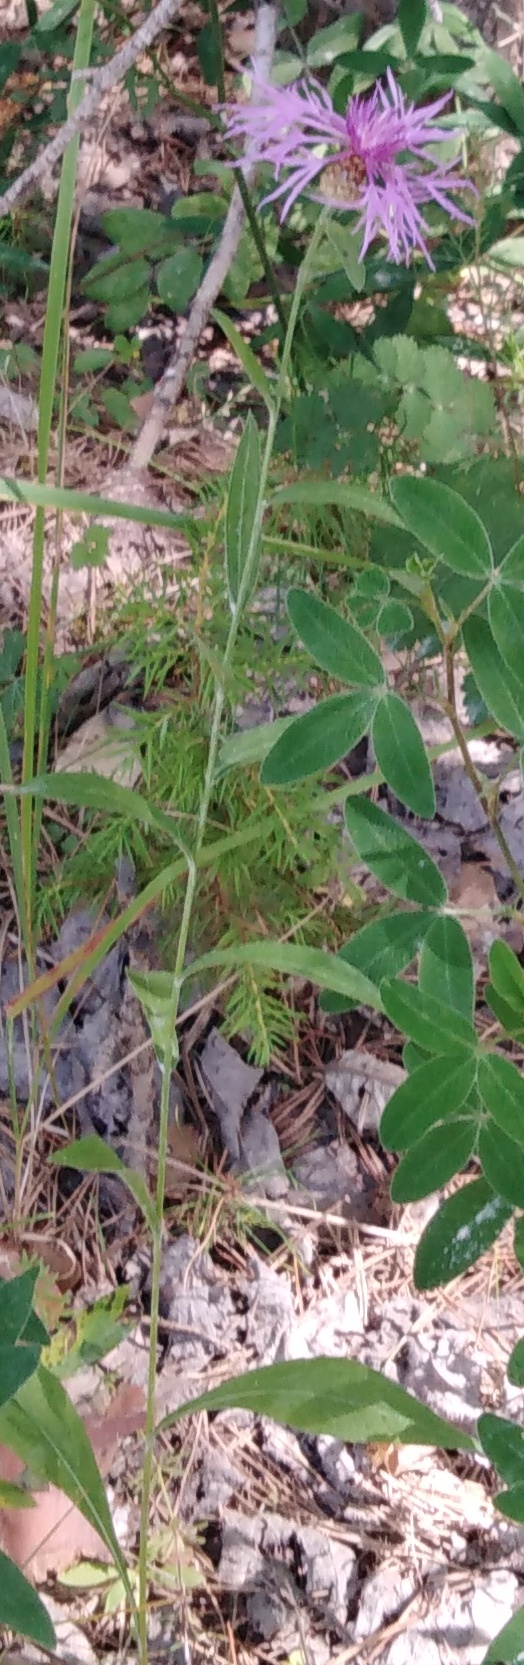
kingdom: Plantae
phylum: Tracheophyta
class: Magnoliopsida
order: Asterales
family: Asteraceae
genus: Centaurea
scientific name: Centaurea jacea
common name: Brown knapweed
